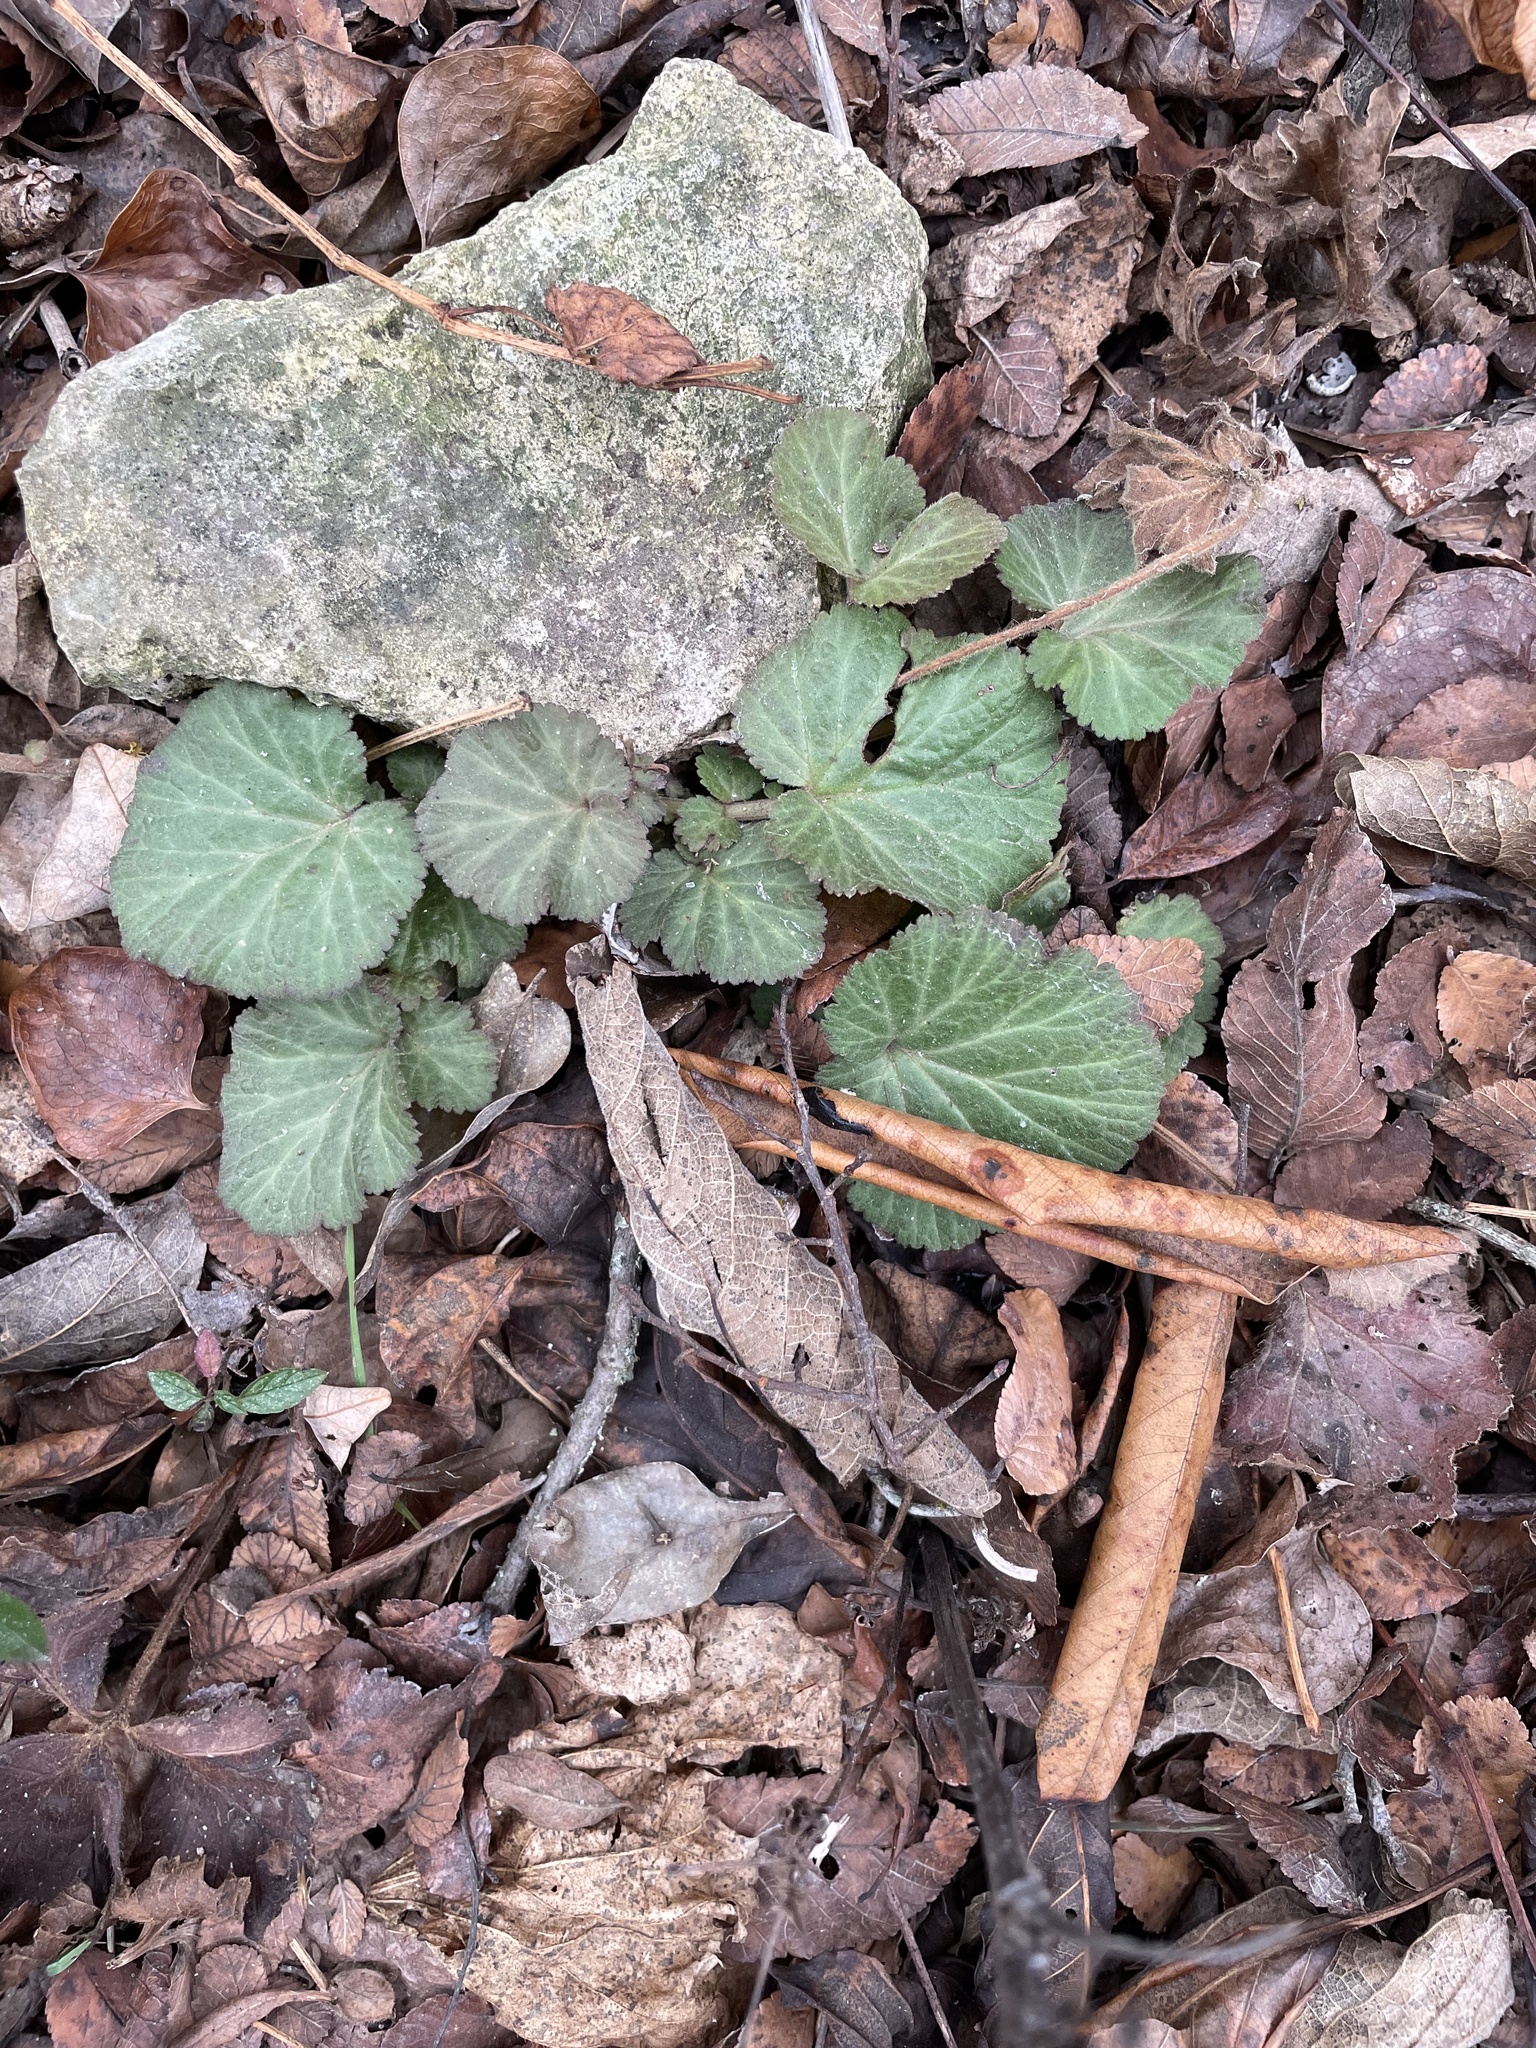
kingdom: Plantae
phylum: Tracheophyta
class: Magnoliopsida
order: Rosales
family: Rosaceae
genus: Geum
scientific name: Geum canadense
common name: White avens
